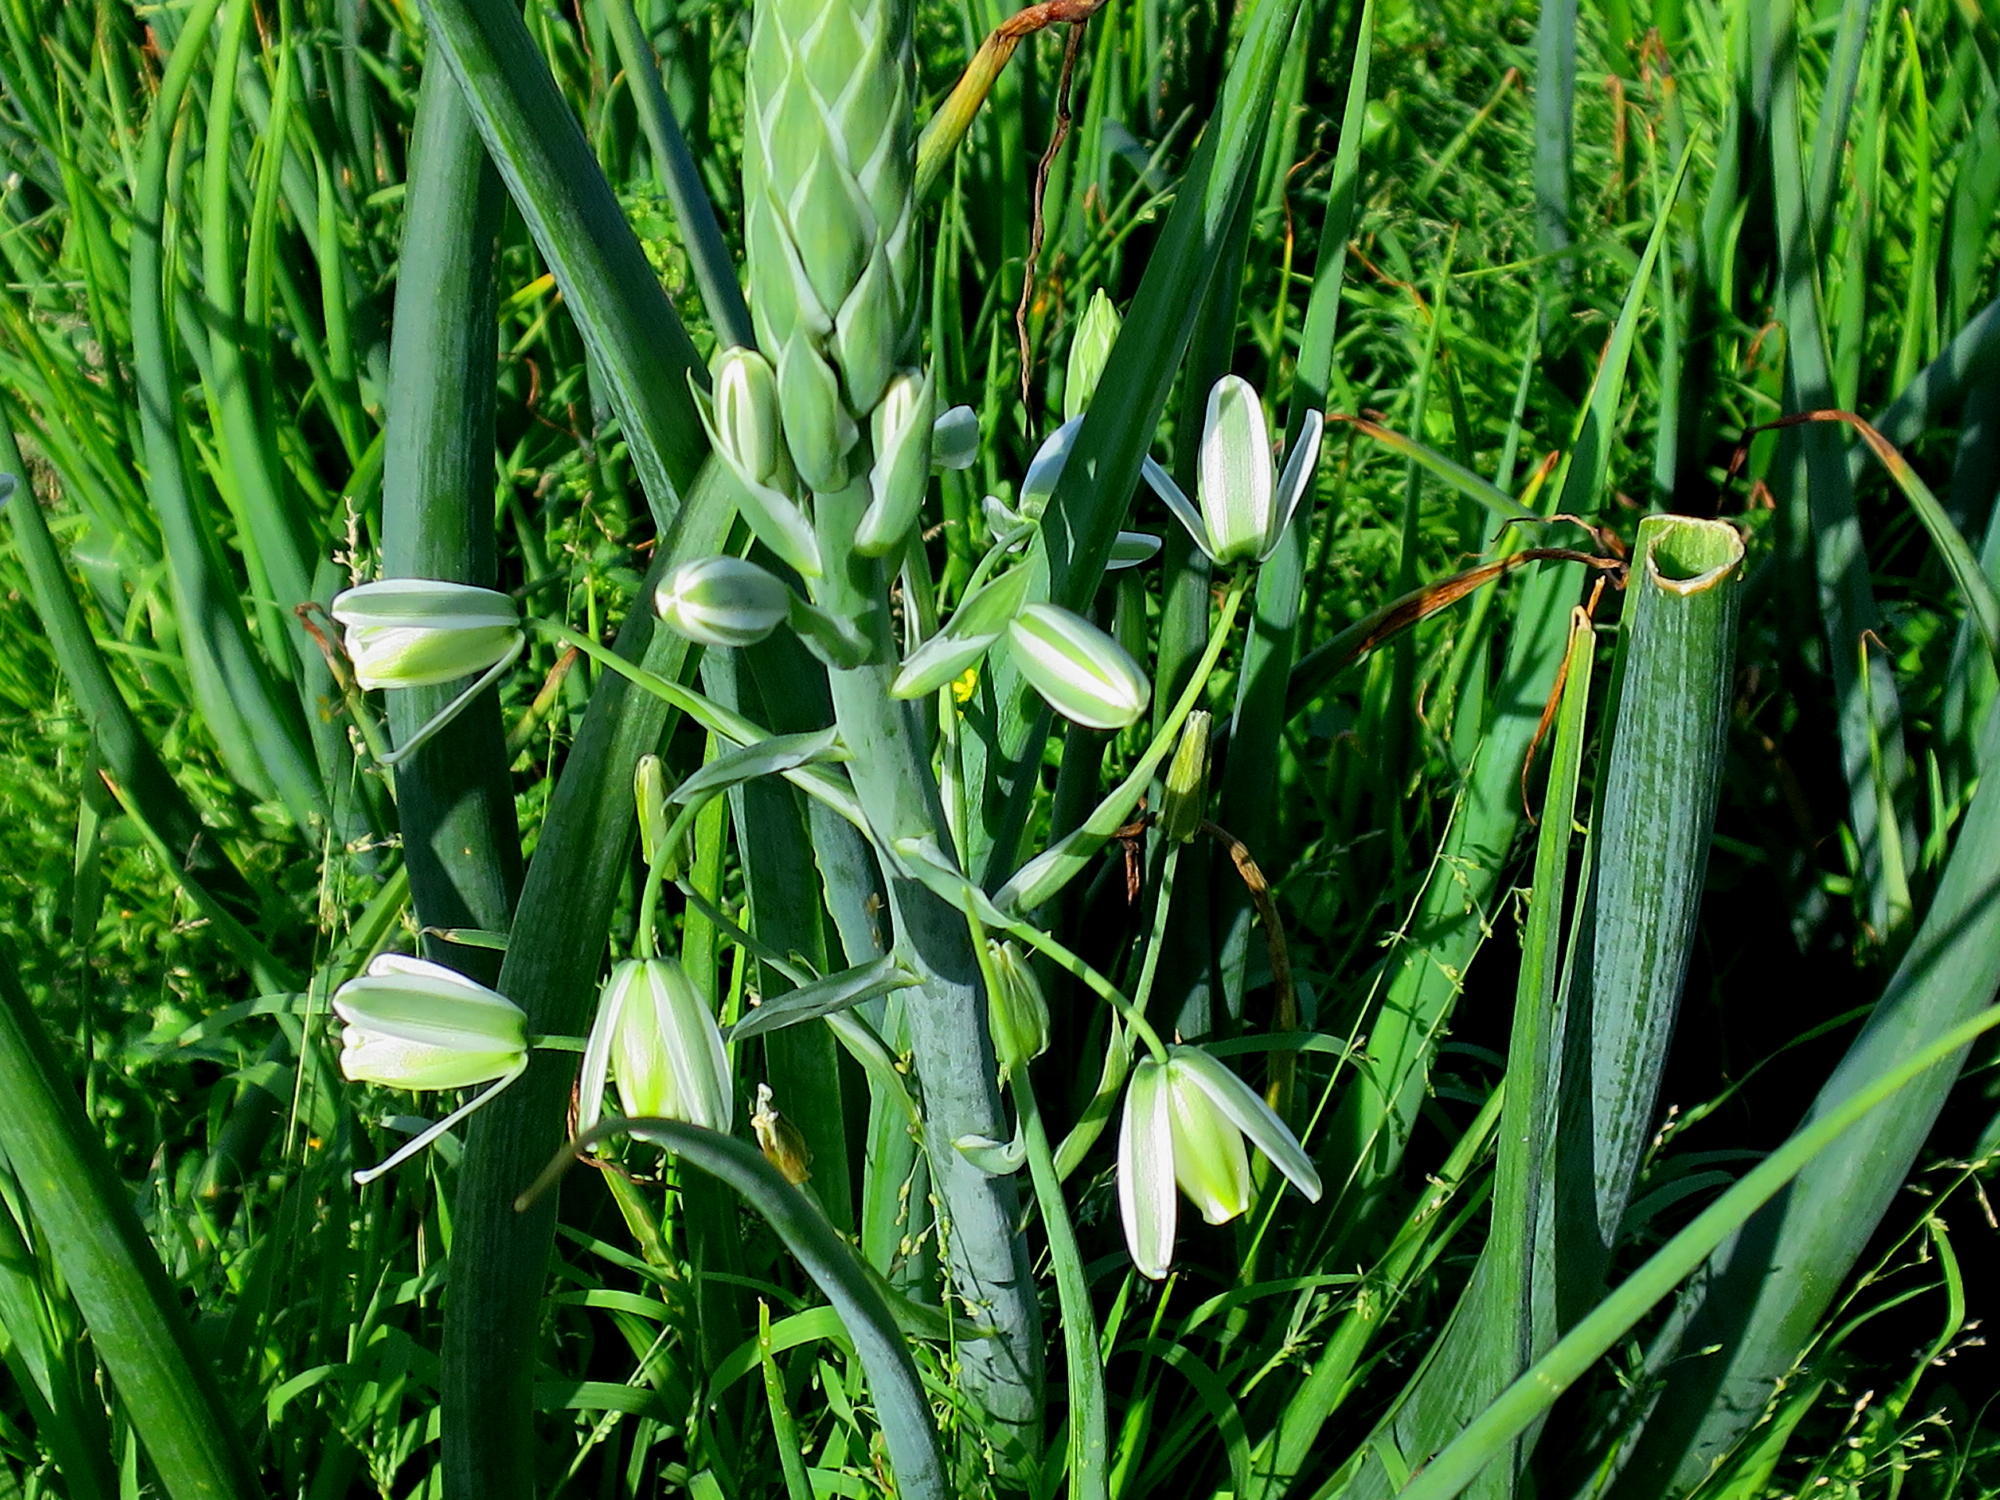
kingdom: Plantae
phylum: Tracheophyta
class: Liliopsida
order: Asparagales
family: Asparagaceae
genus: Albuca
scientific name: Albuca canadensis
